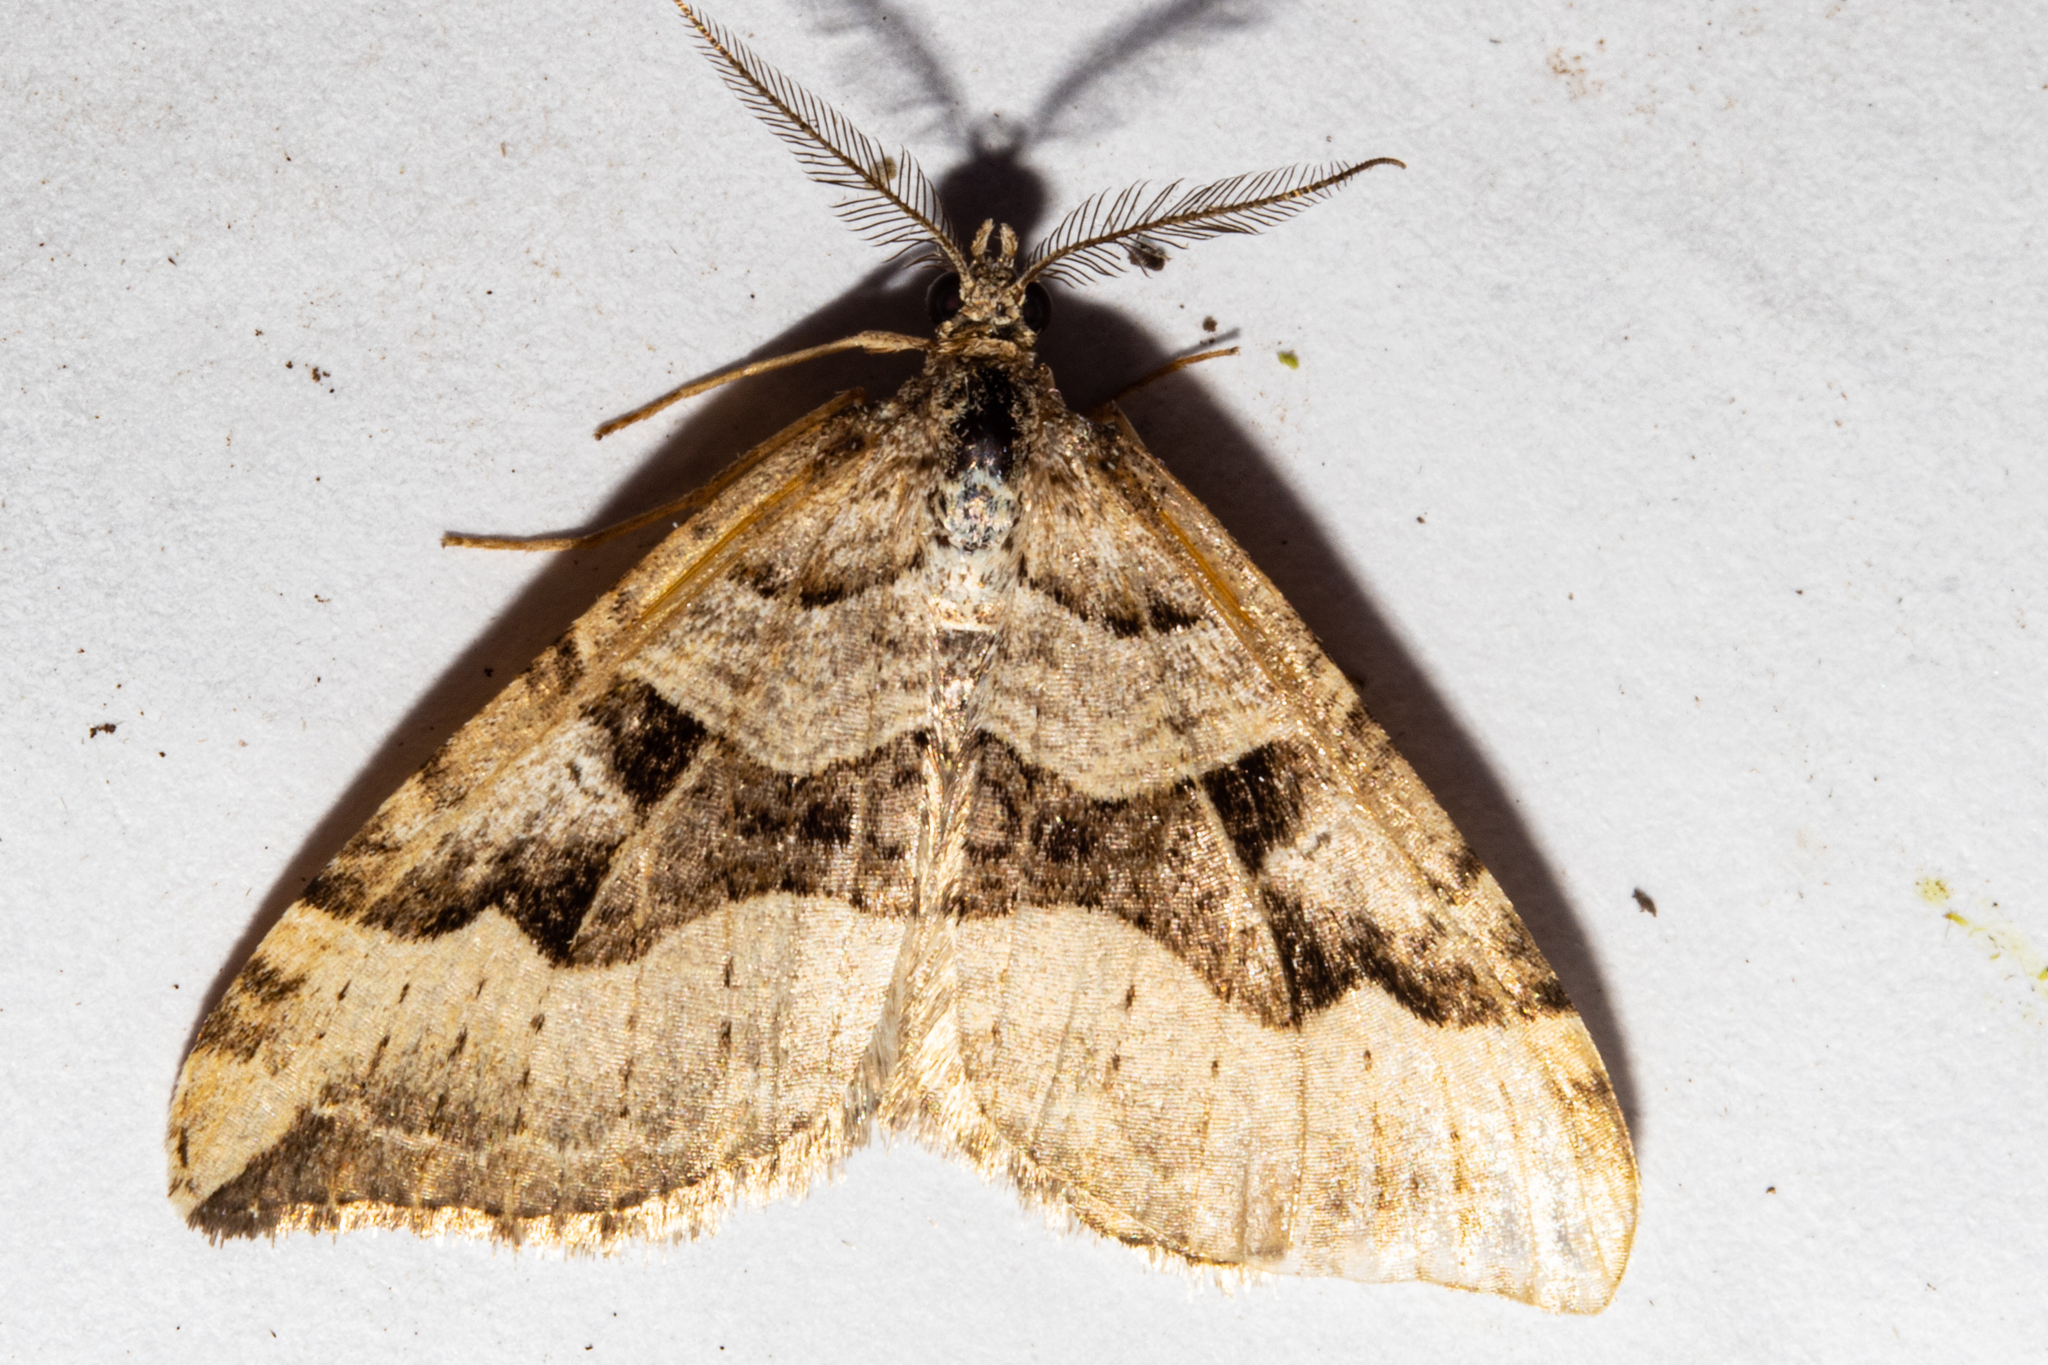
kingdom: Animalia
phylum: Arthropoda
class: Insecta
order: Lepidoptera
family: Geometridae
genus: Xanthorhoe
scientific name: Xanthorhoe semifissata
